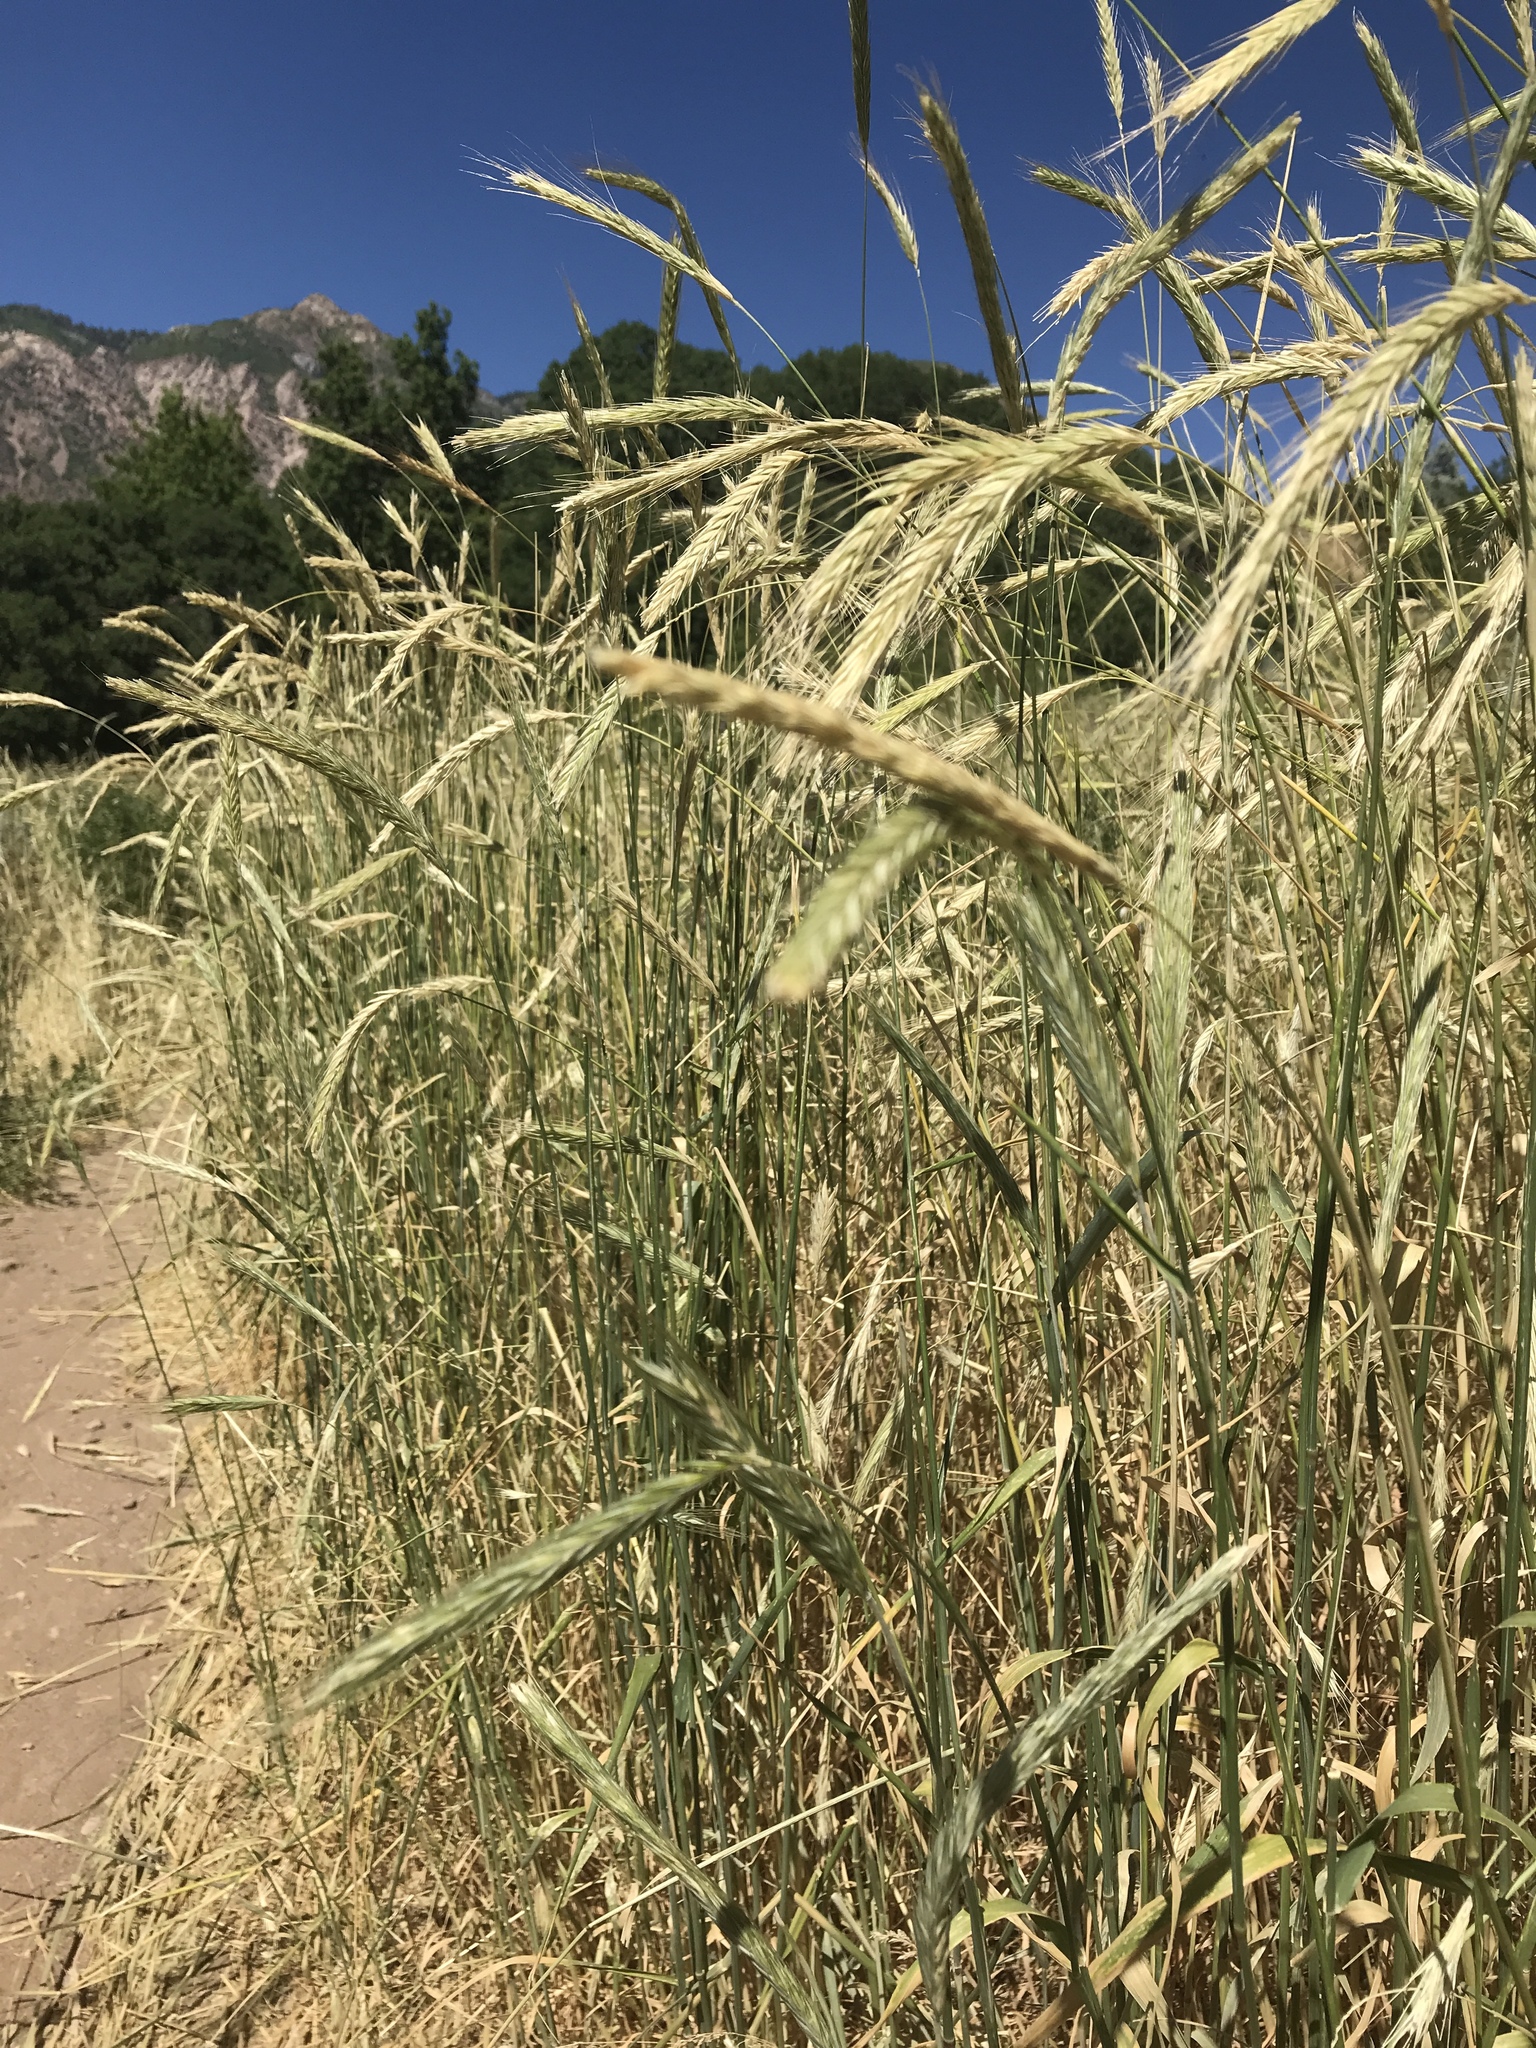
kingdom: Plantae
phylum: Tracheophyta
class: Liliopsida
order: Poales
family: Poaceae
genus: Secale
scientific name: Secale cereale
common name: Rye
